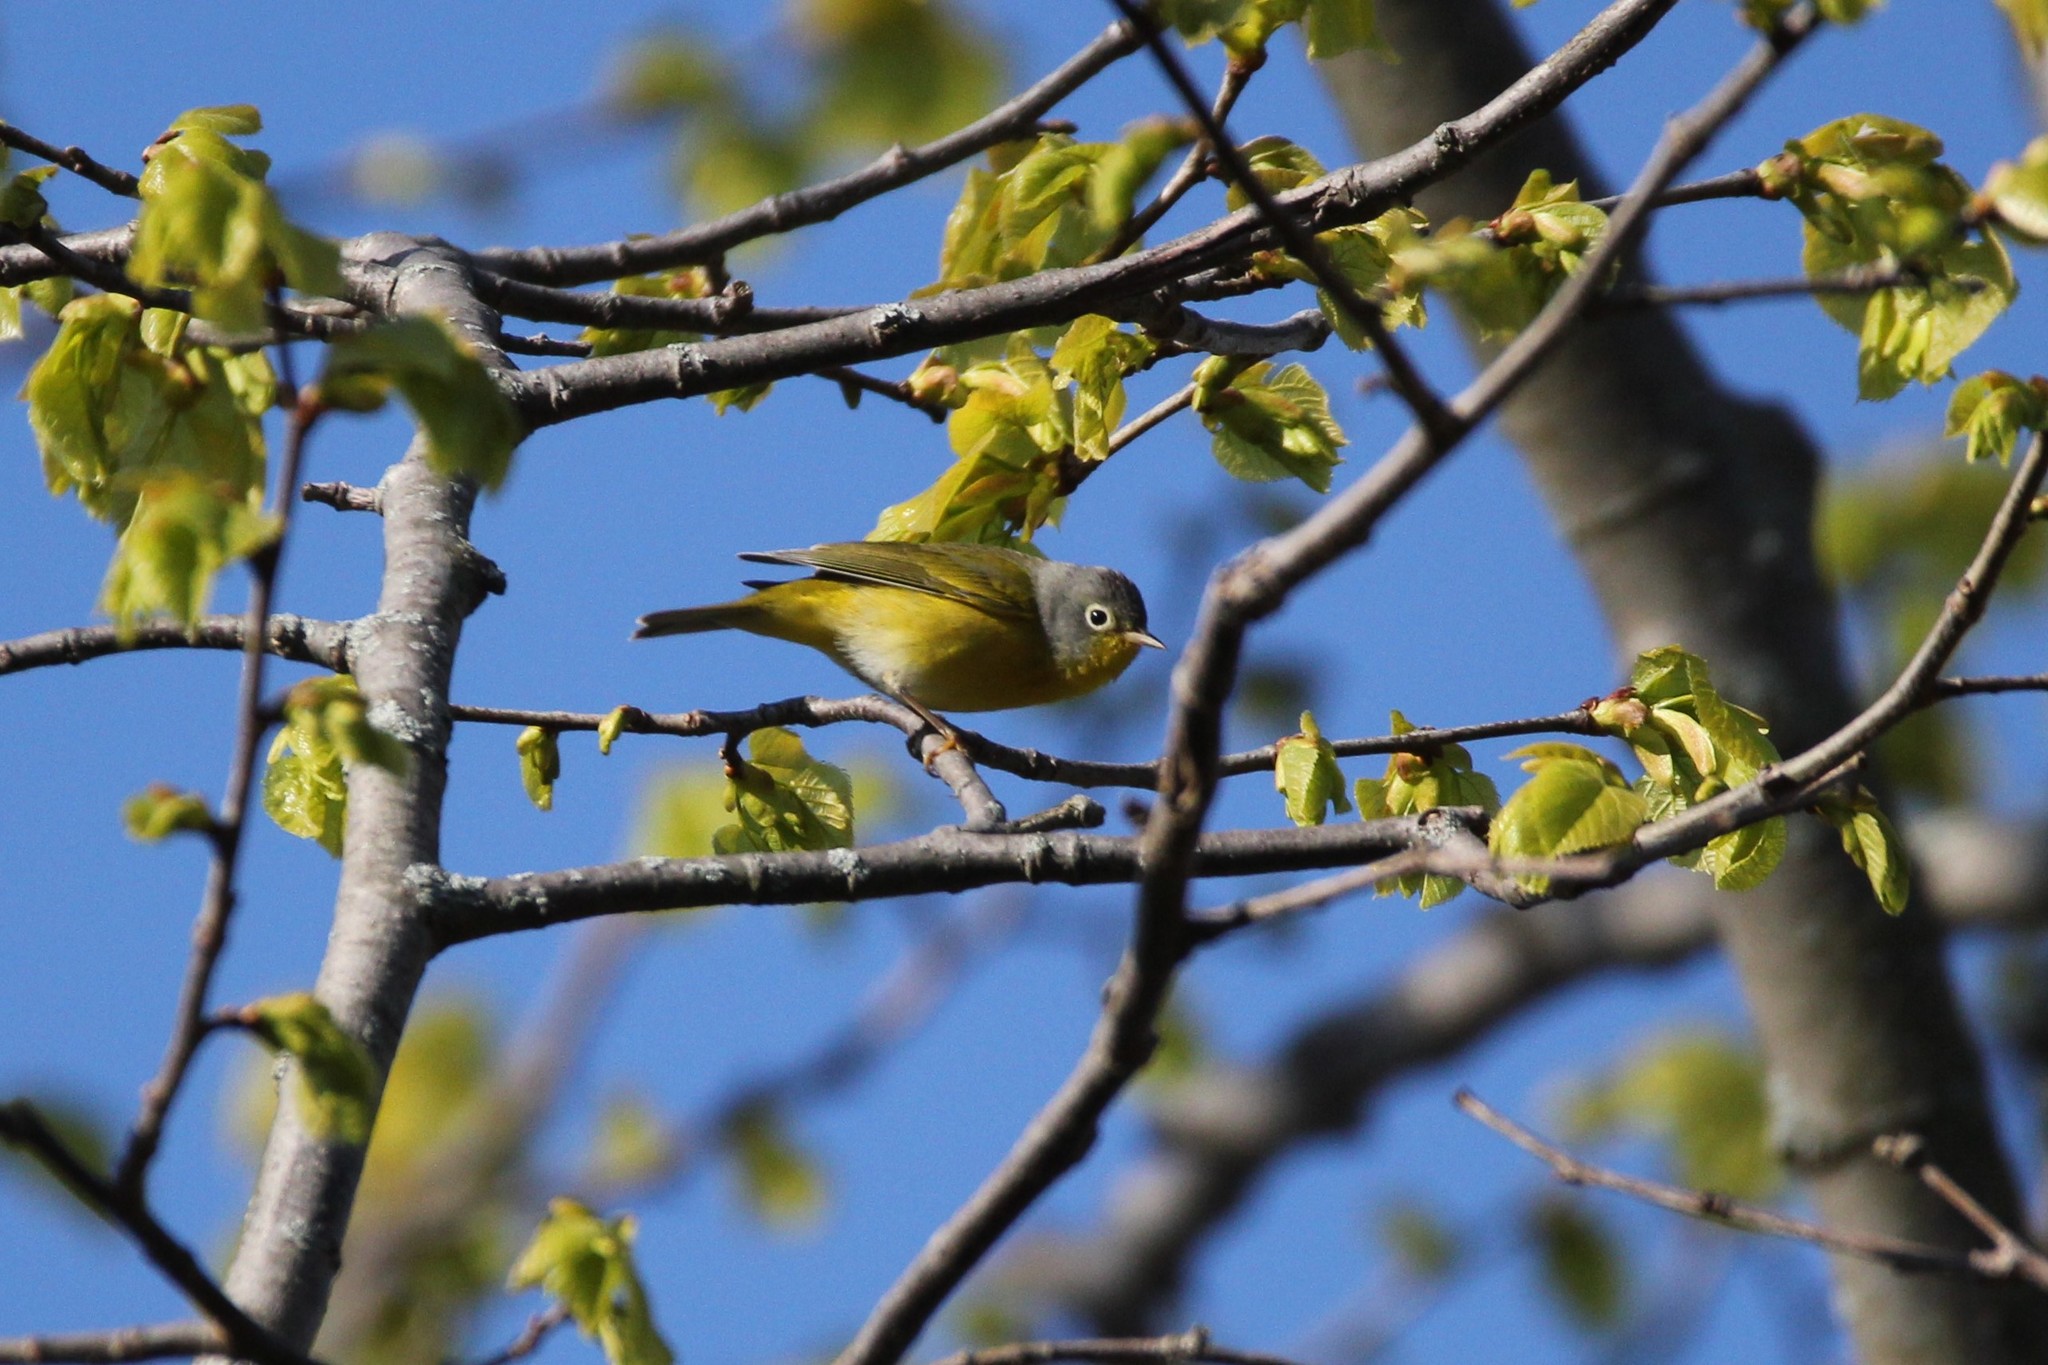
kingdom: Animalia
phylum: Chordata
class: Aves
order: Passeriformes
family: Parulidae
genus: Leiothlypis
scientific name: Leiothlypis ruficapilla
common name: Nashville warbler
